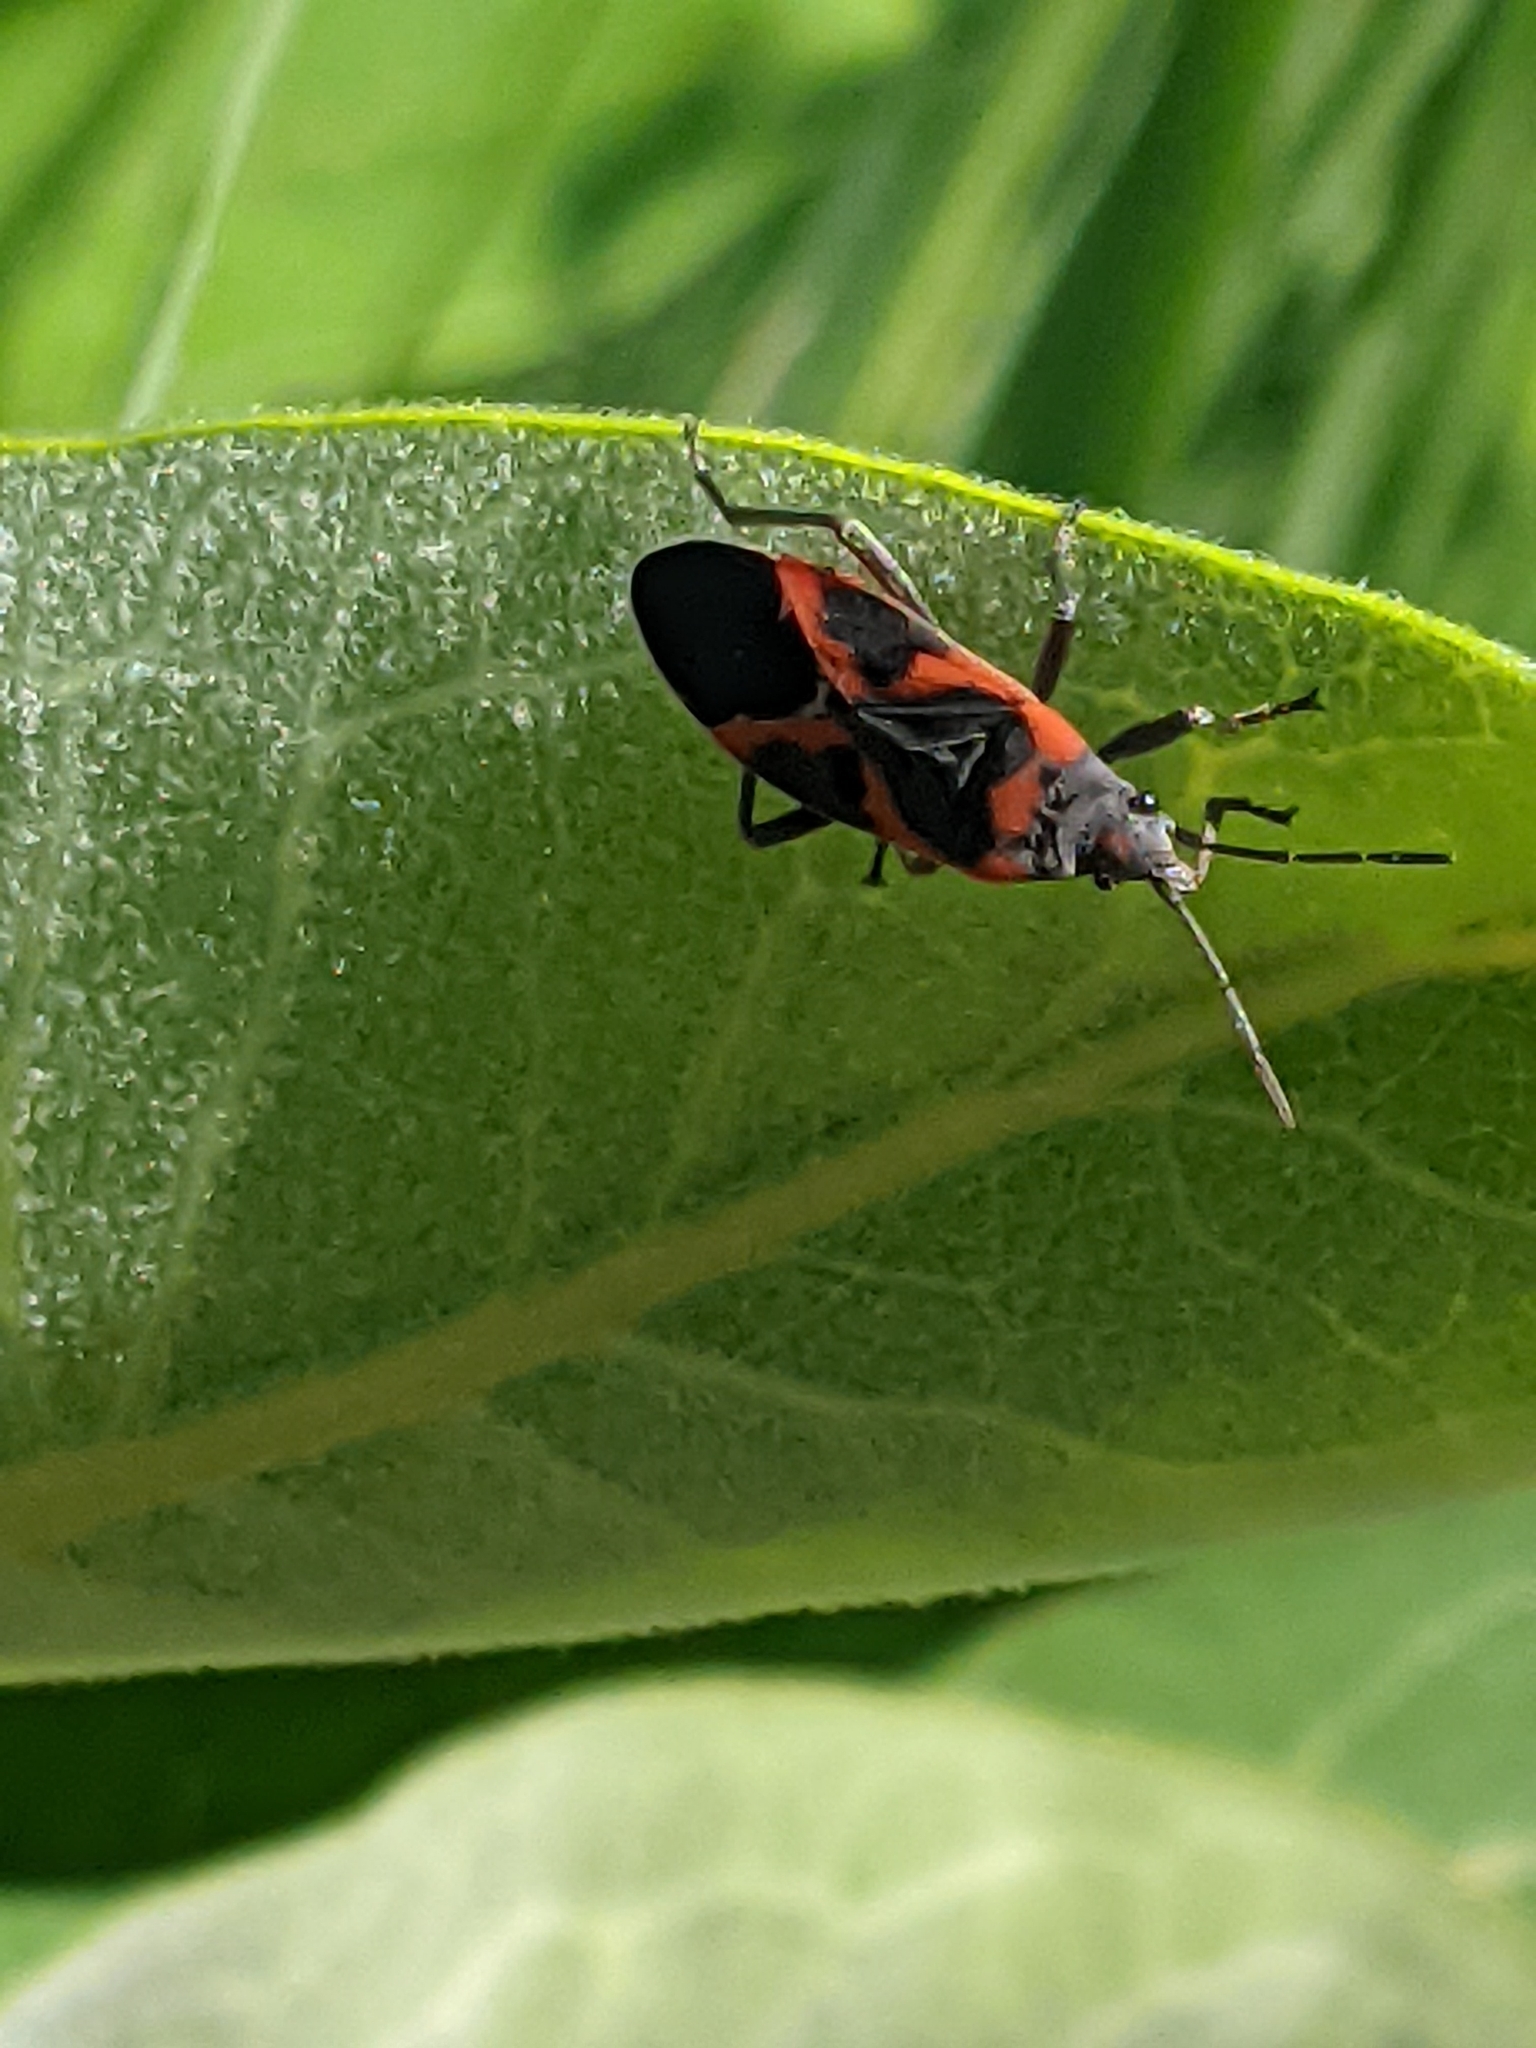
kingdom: Animalia
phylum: Arthropoda
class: Insecta
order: Hemiptera
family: Lygaeidae
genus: Lygaeus
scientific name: Lygaeus kalmii
